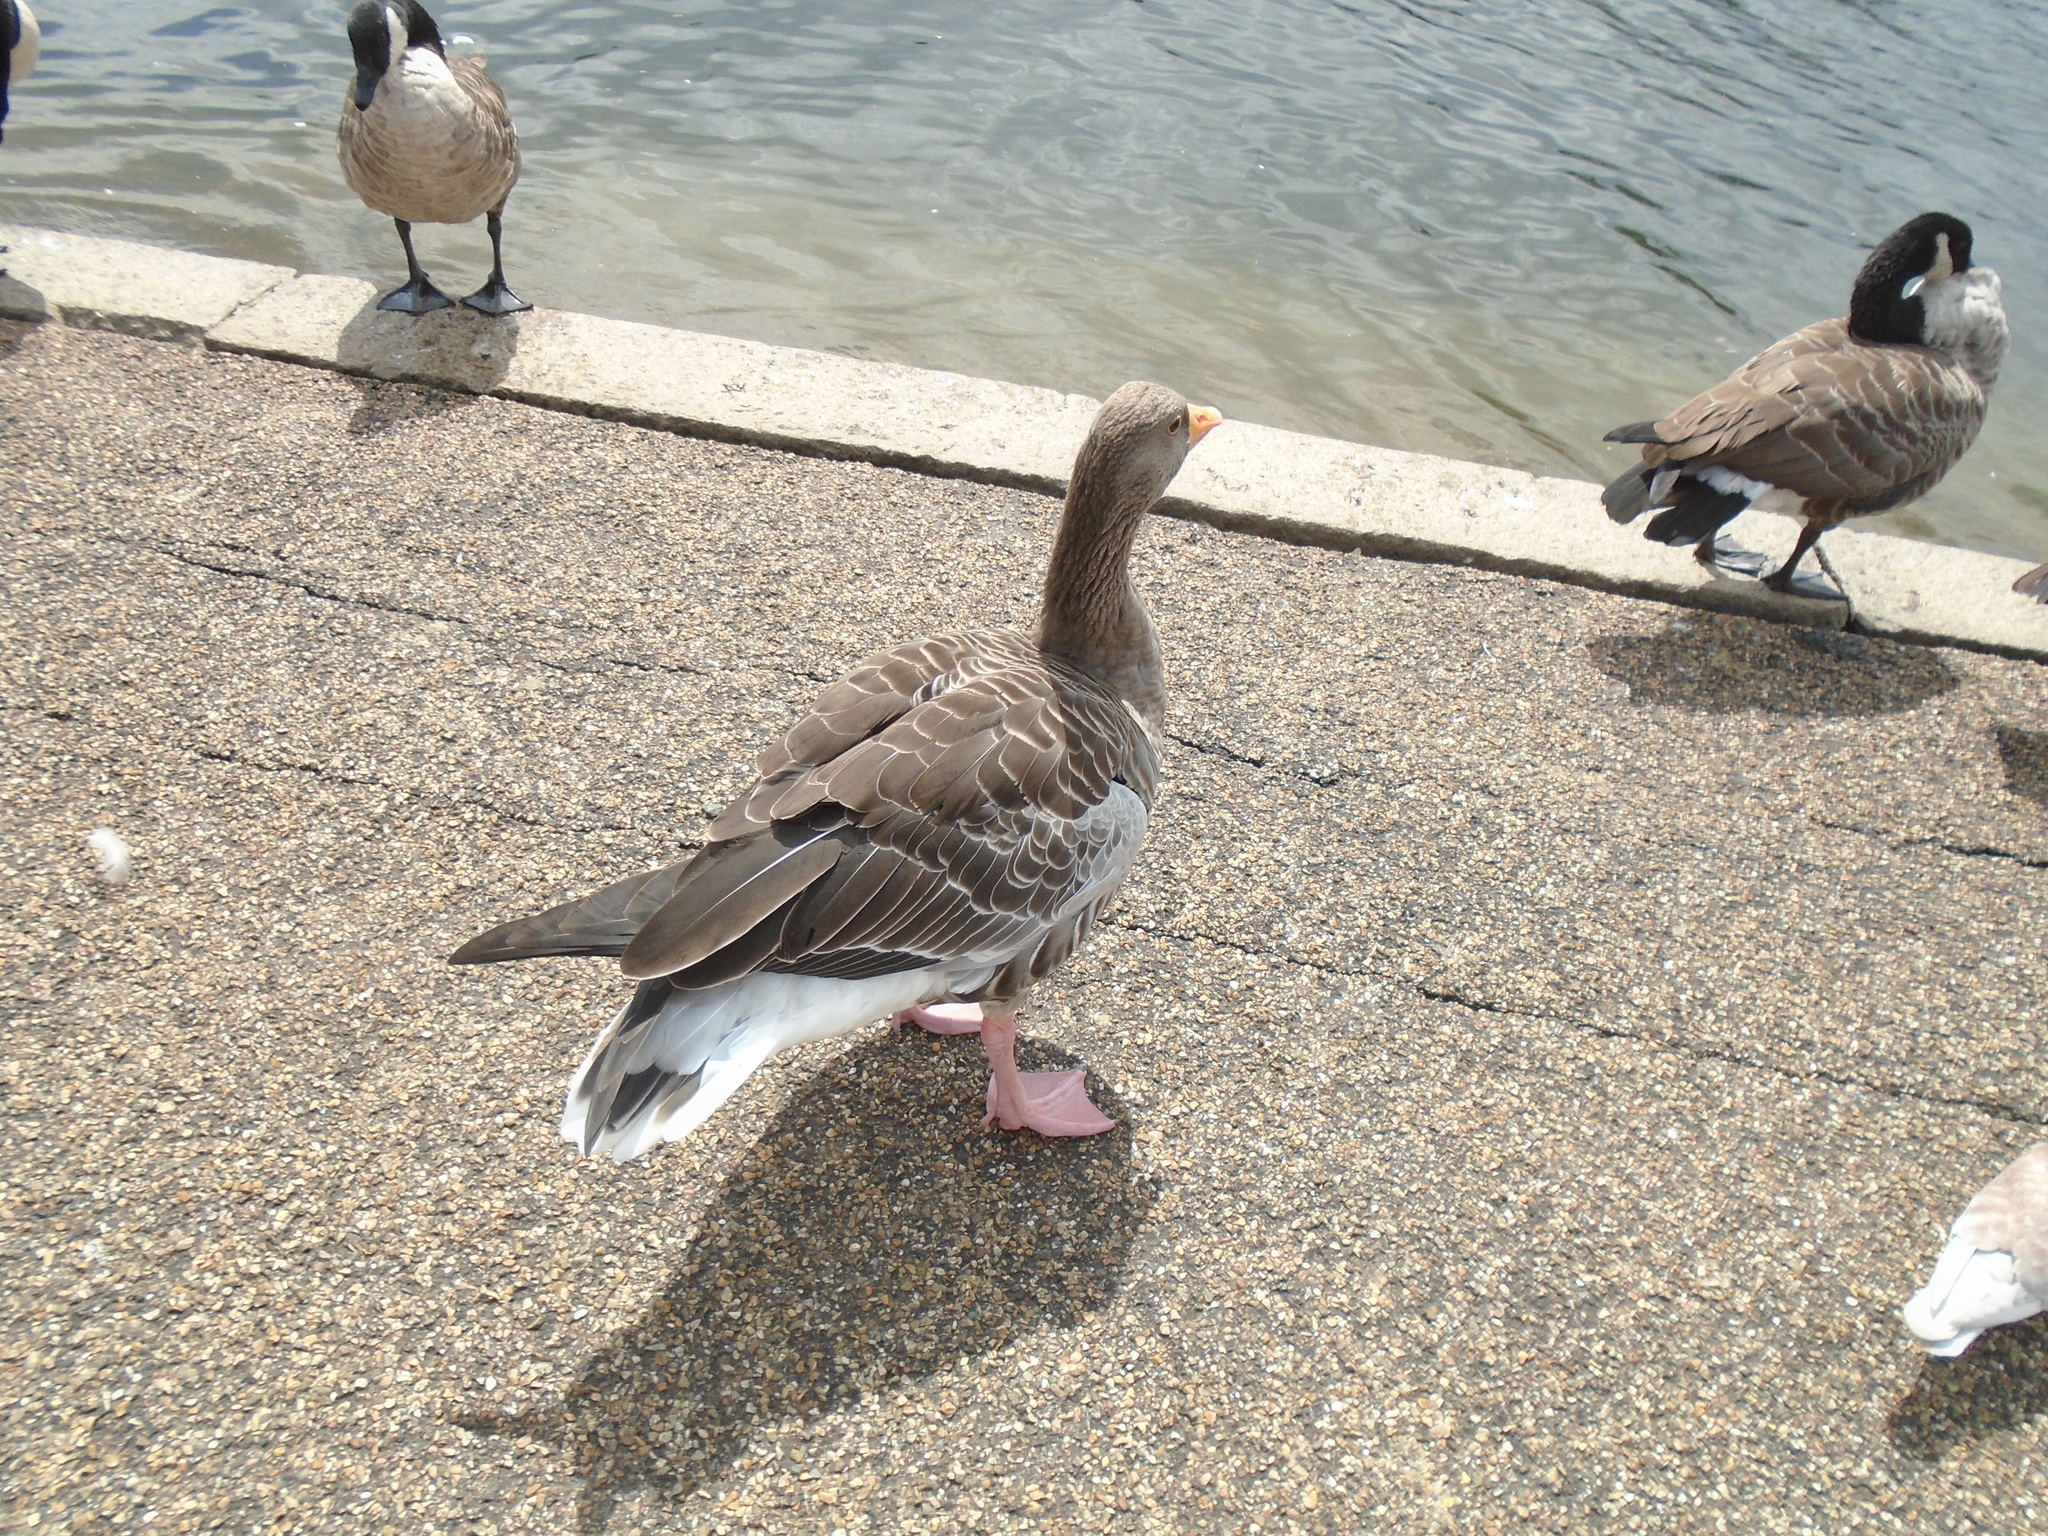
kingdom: Animalia
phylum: Chordata
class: Aves
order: Anseriformes
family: Anatidae
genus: Anser
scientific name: Anser anser
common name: Greylag goose
